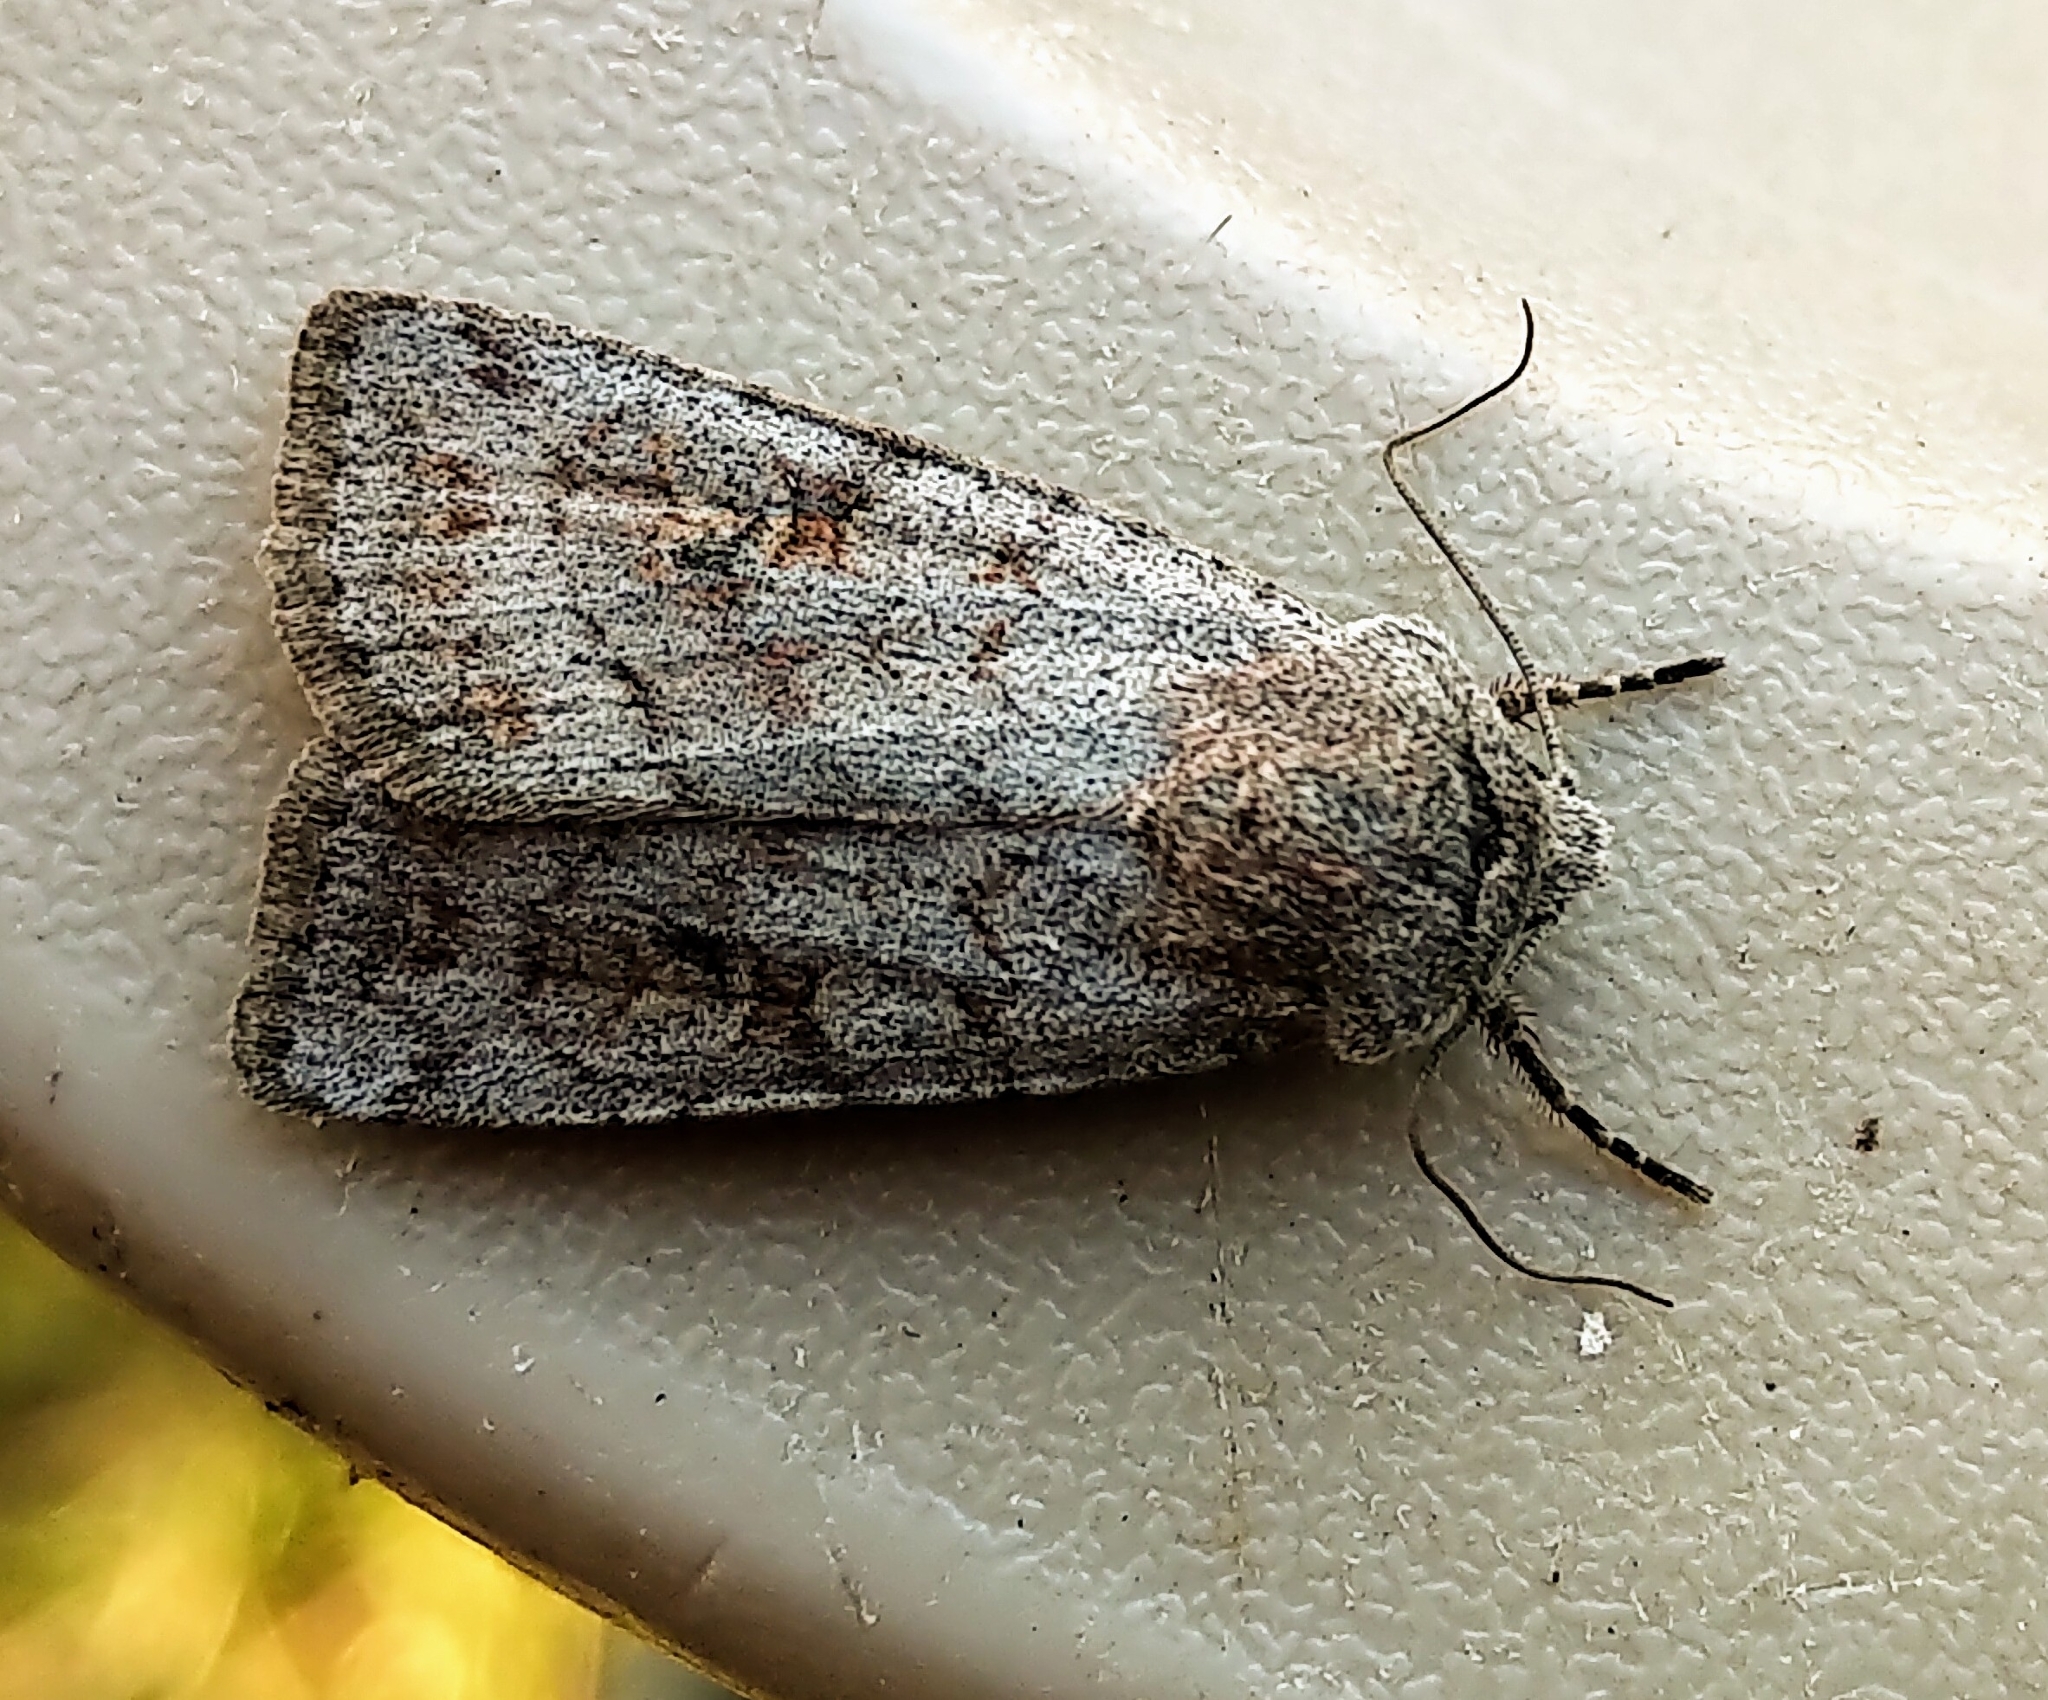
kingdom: Animalia
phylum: Arthropoda
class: Insecta
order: Lepidoptera
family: Noctuidae
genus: Euxoa
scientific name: Euxoa munis
